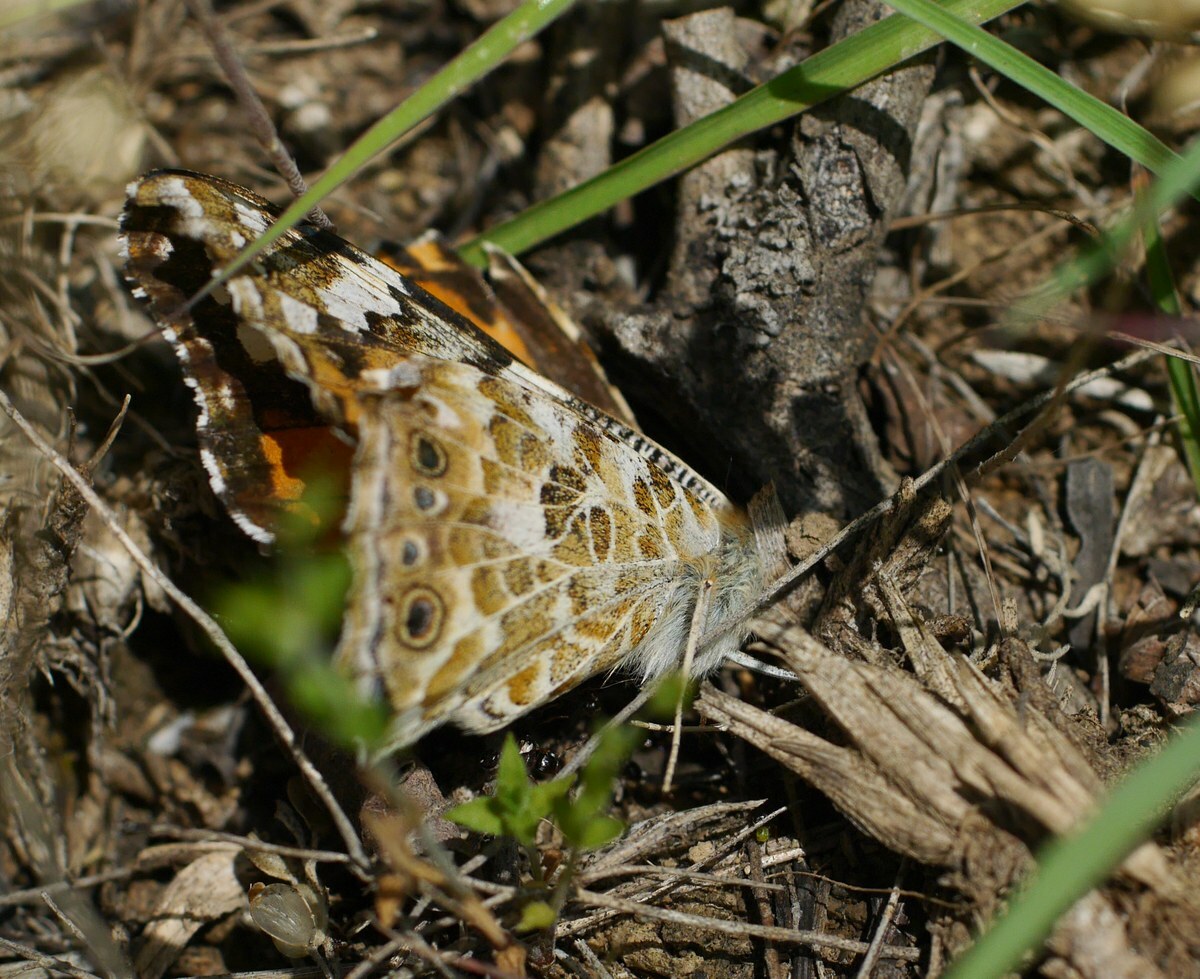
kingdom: Animalia
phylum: Arthropoda
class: Insecta
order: Lepidoptera
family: Nymphalidae
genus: Vanessa
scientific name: Vanessa cardui
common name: Painted lady
